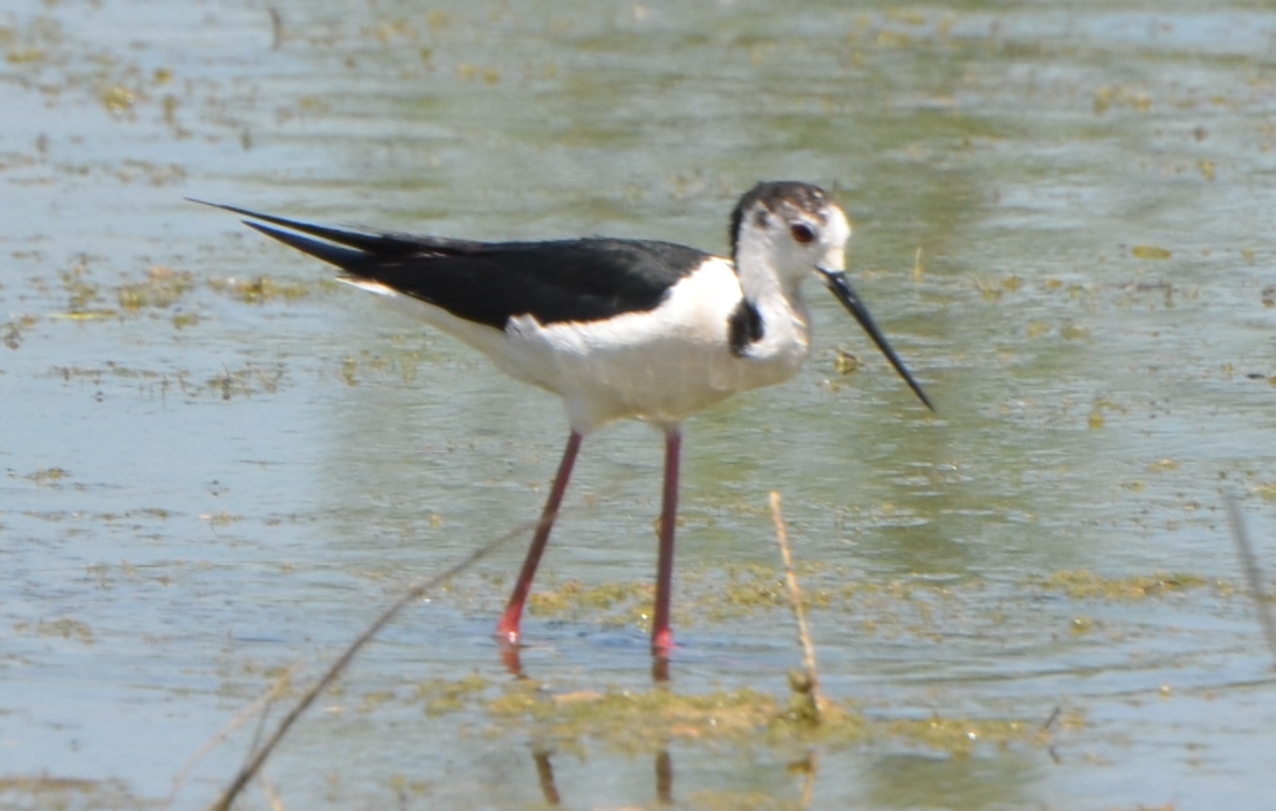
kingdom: Animalia
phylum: Chordata
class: Aves
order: Charadriiformes
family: Recurvirostridae
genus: Himantopus
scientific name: Himantopus himantopus
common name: Black-winged stilt
